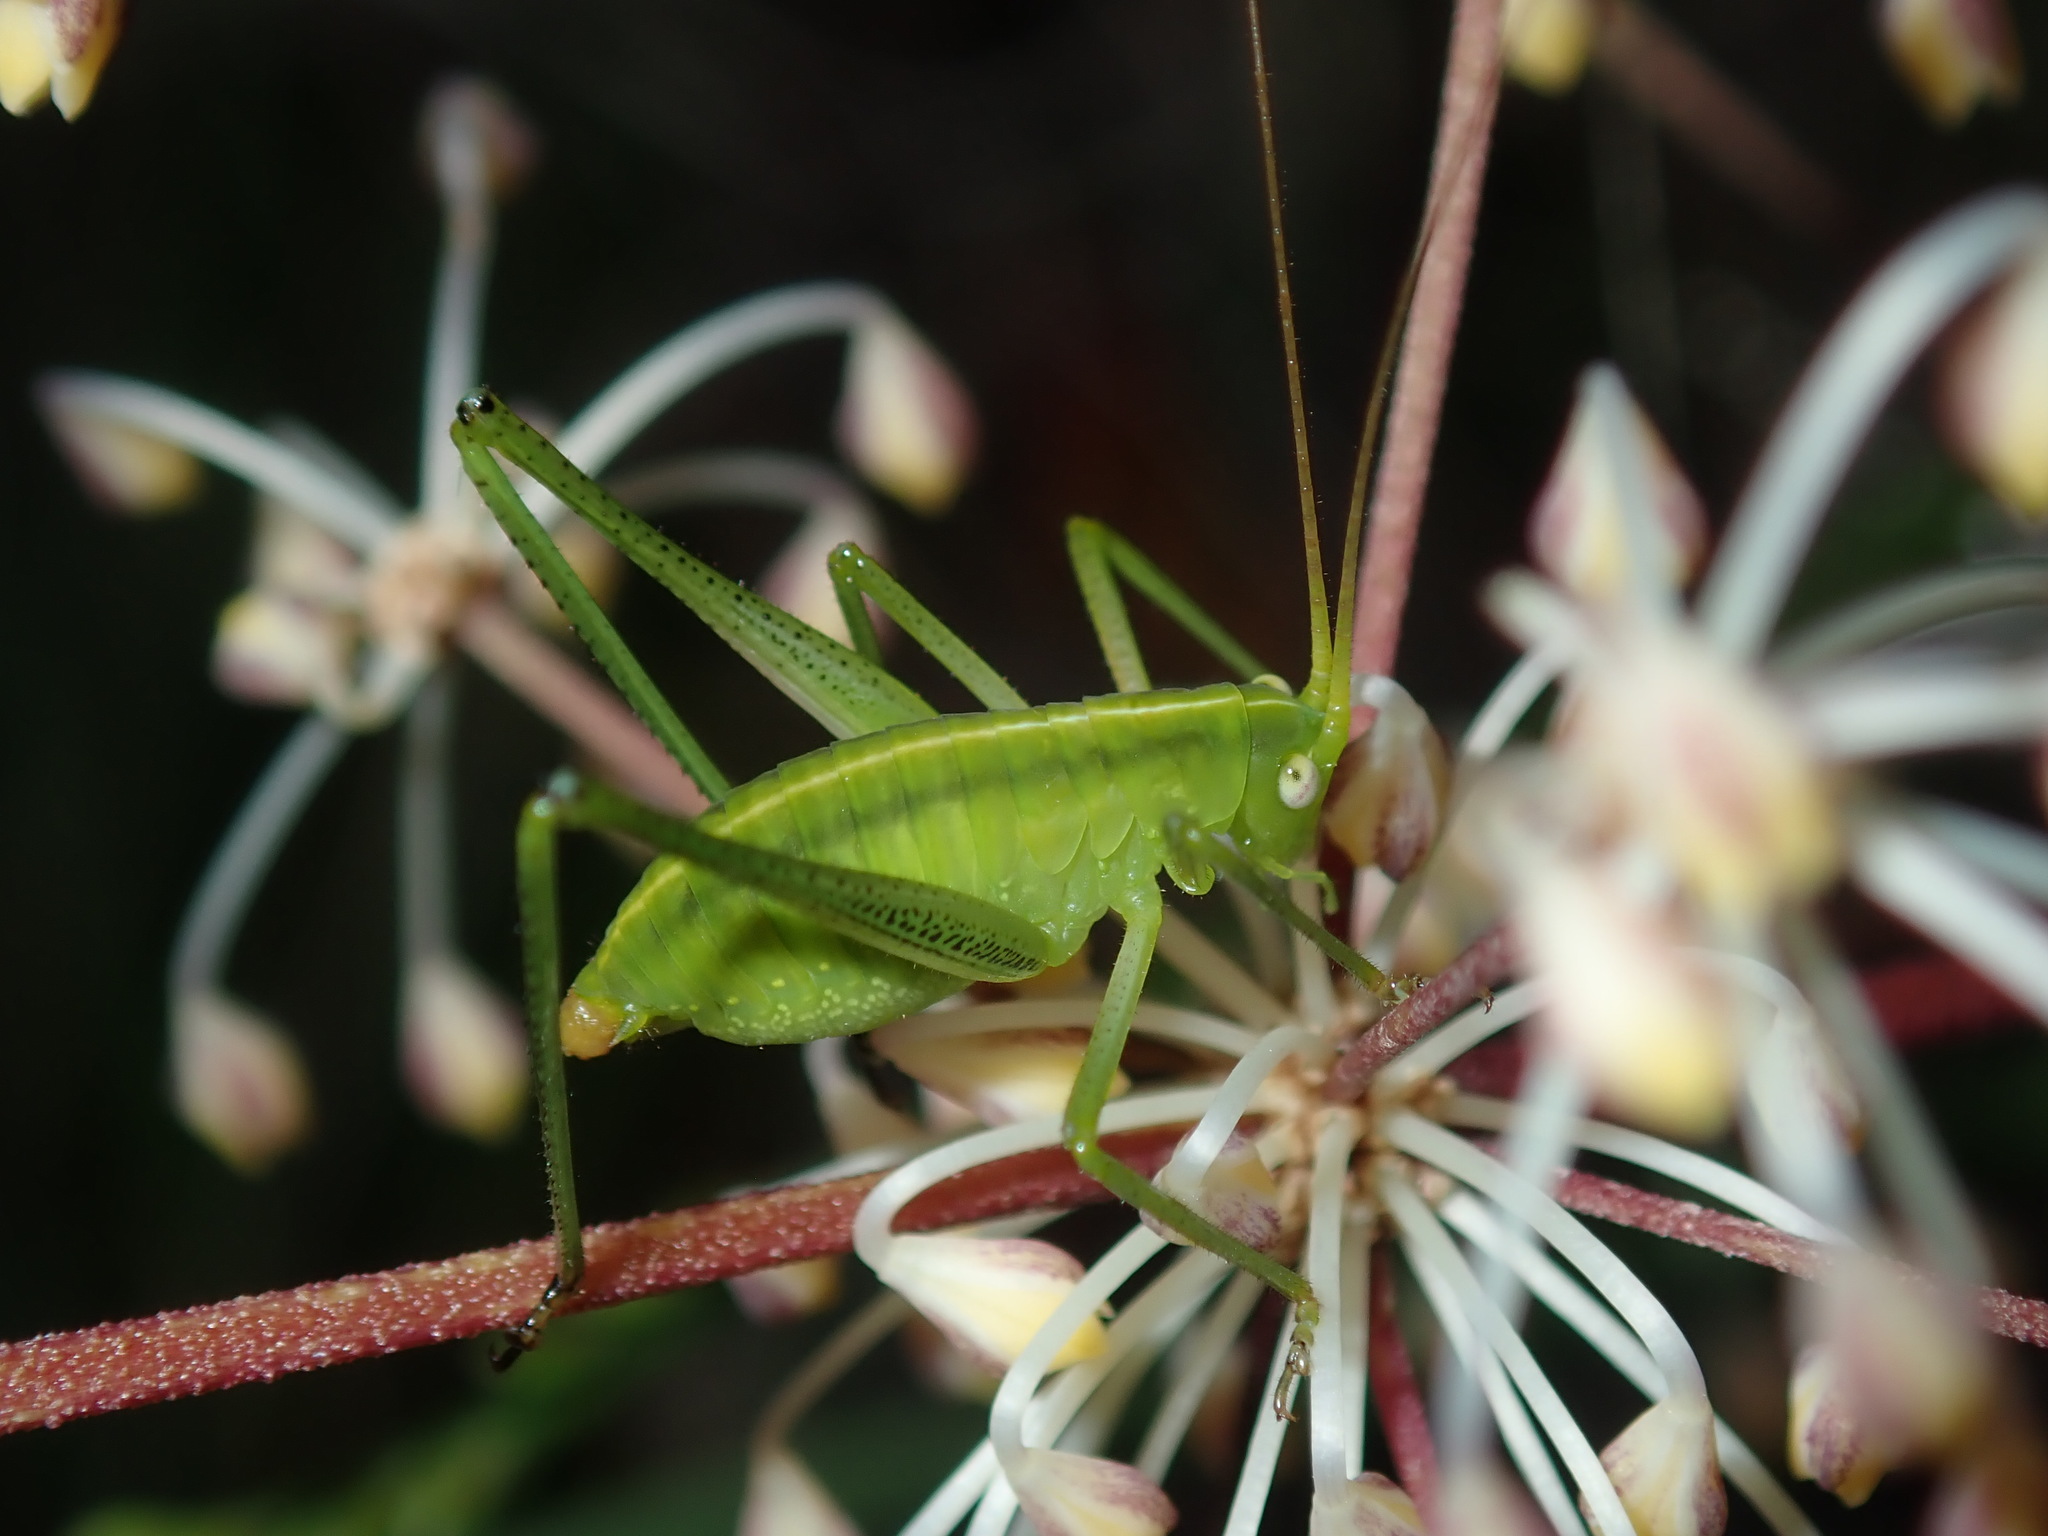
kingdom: Animalia
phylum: Arthropoda
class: Insecta
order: Orthoptera
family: Tettigoniidae
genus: Elephantodeta
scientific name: Elephantodeta nobilis
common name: Noble hump-backed kattydid
